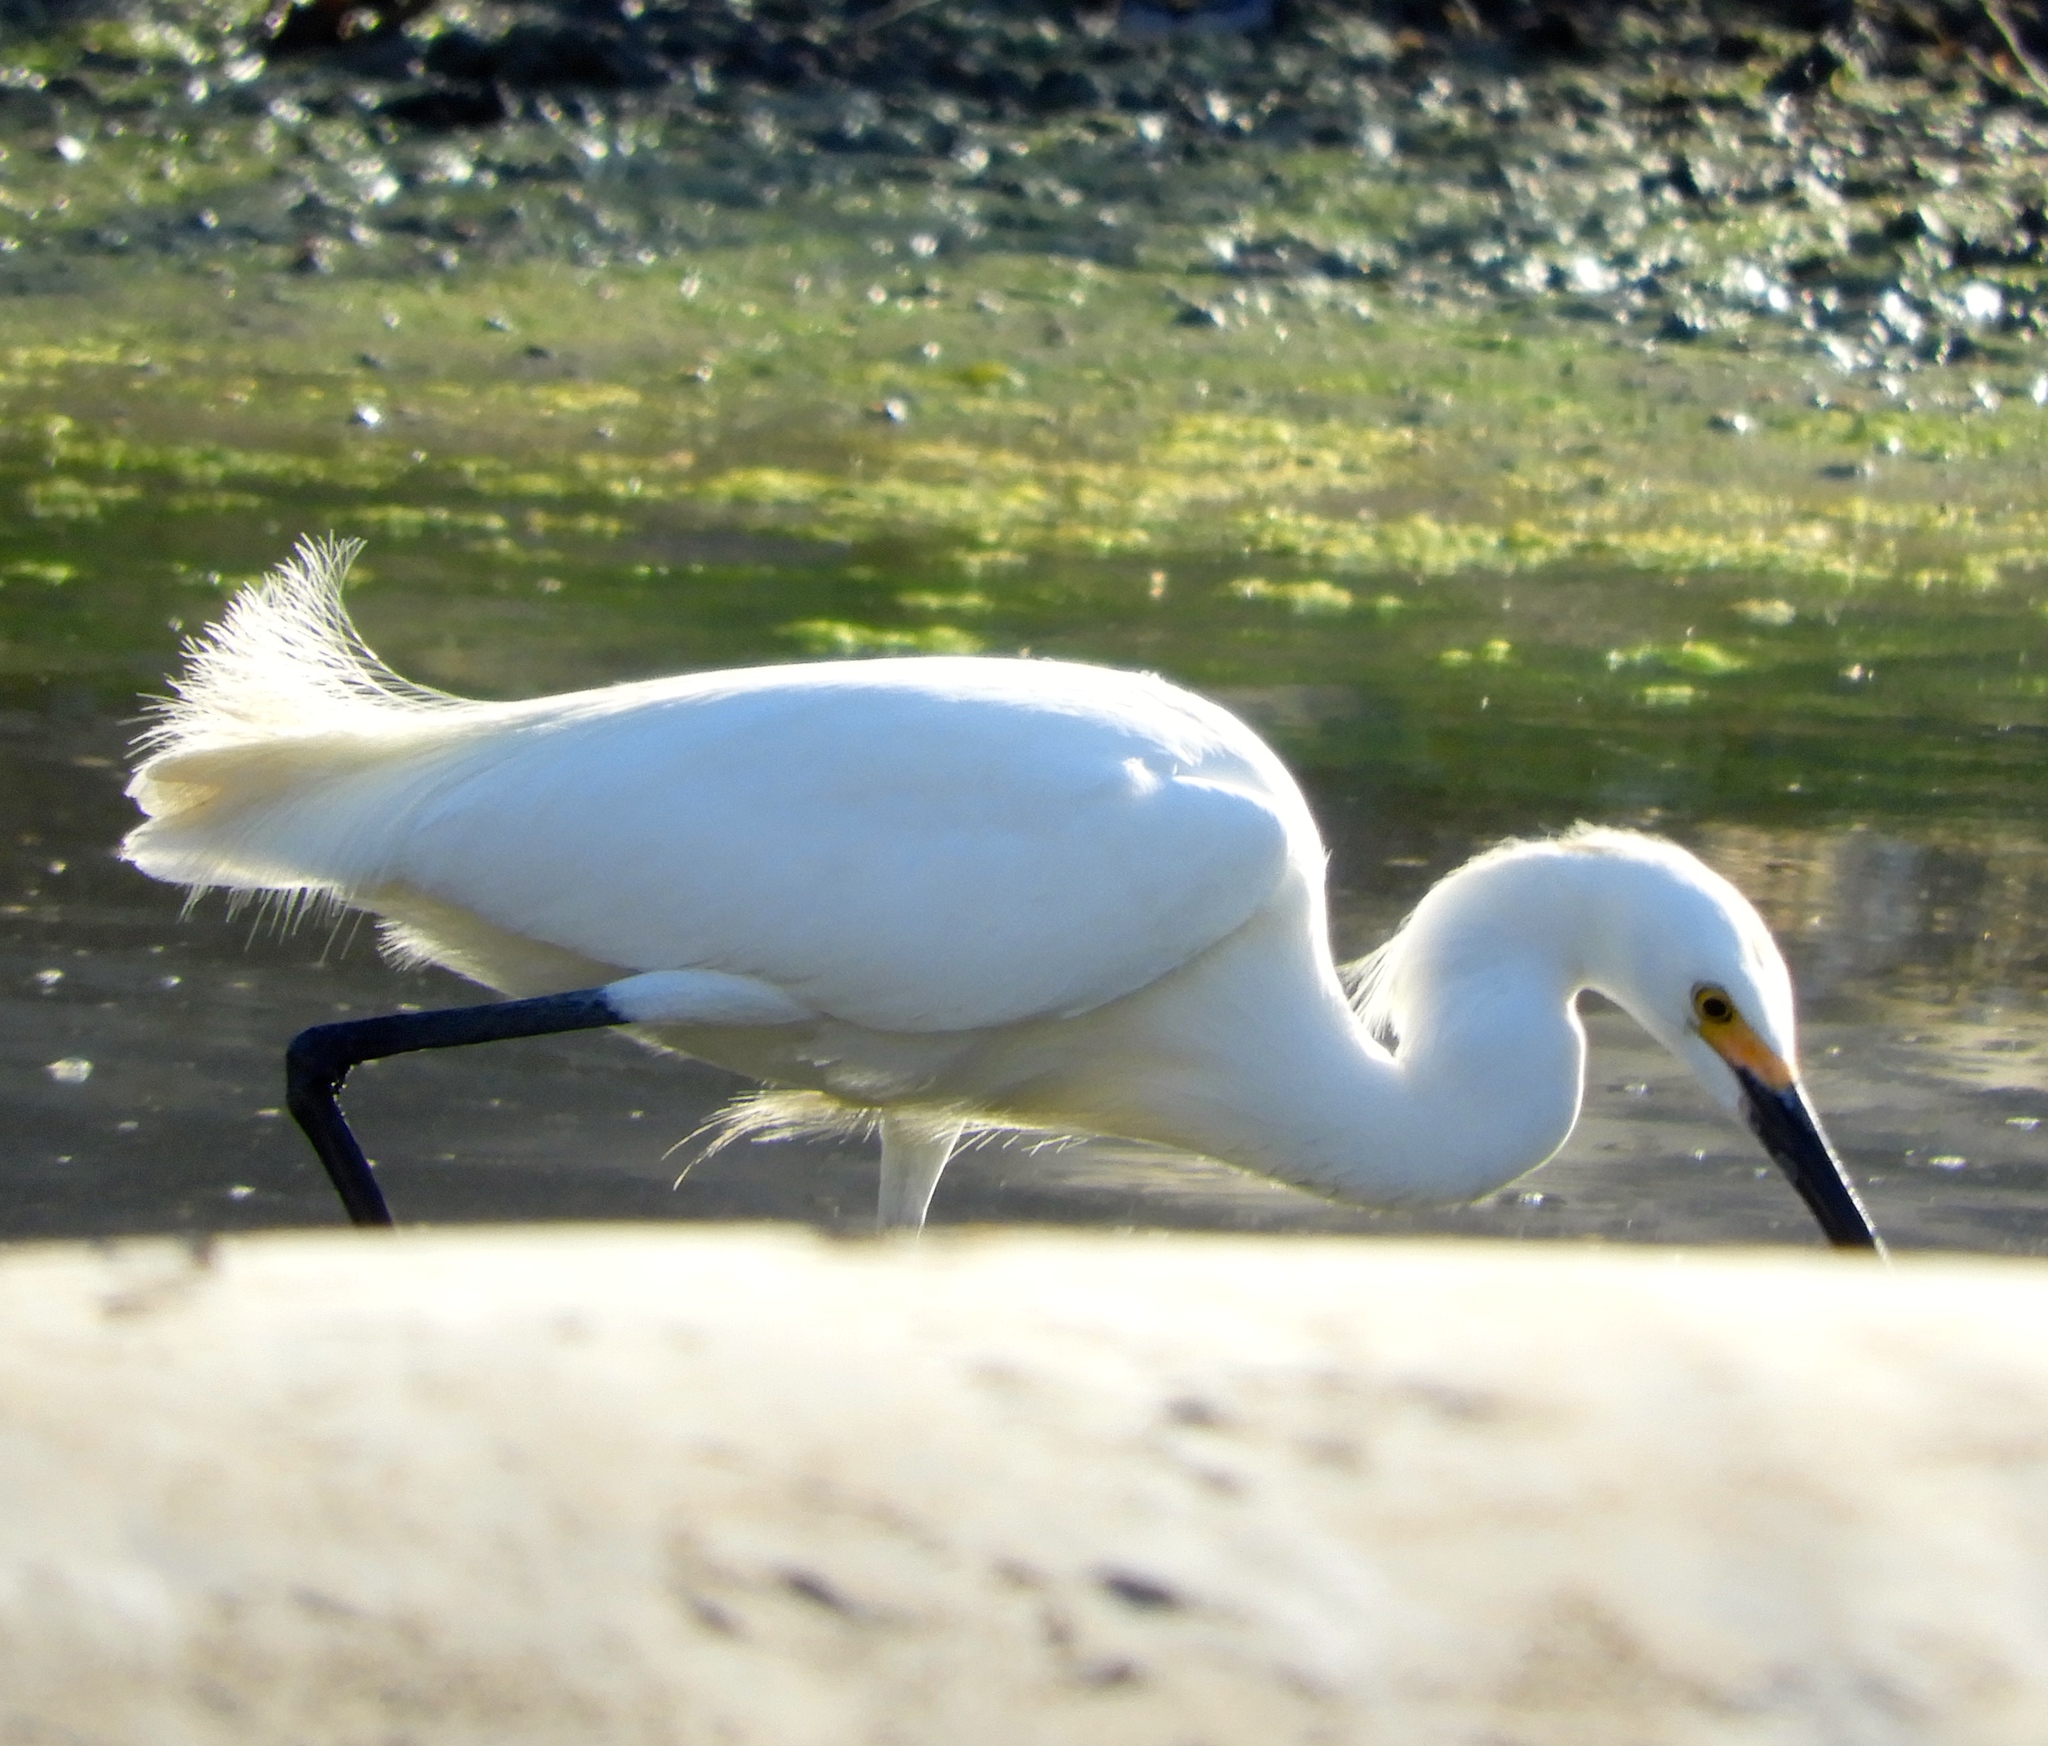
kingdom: Animalia
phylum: Chordata
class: Aves
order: Pelecaniformes
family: Ardeidae
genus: Egretta
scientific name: Egretta thula
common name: Snowy egret
